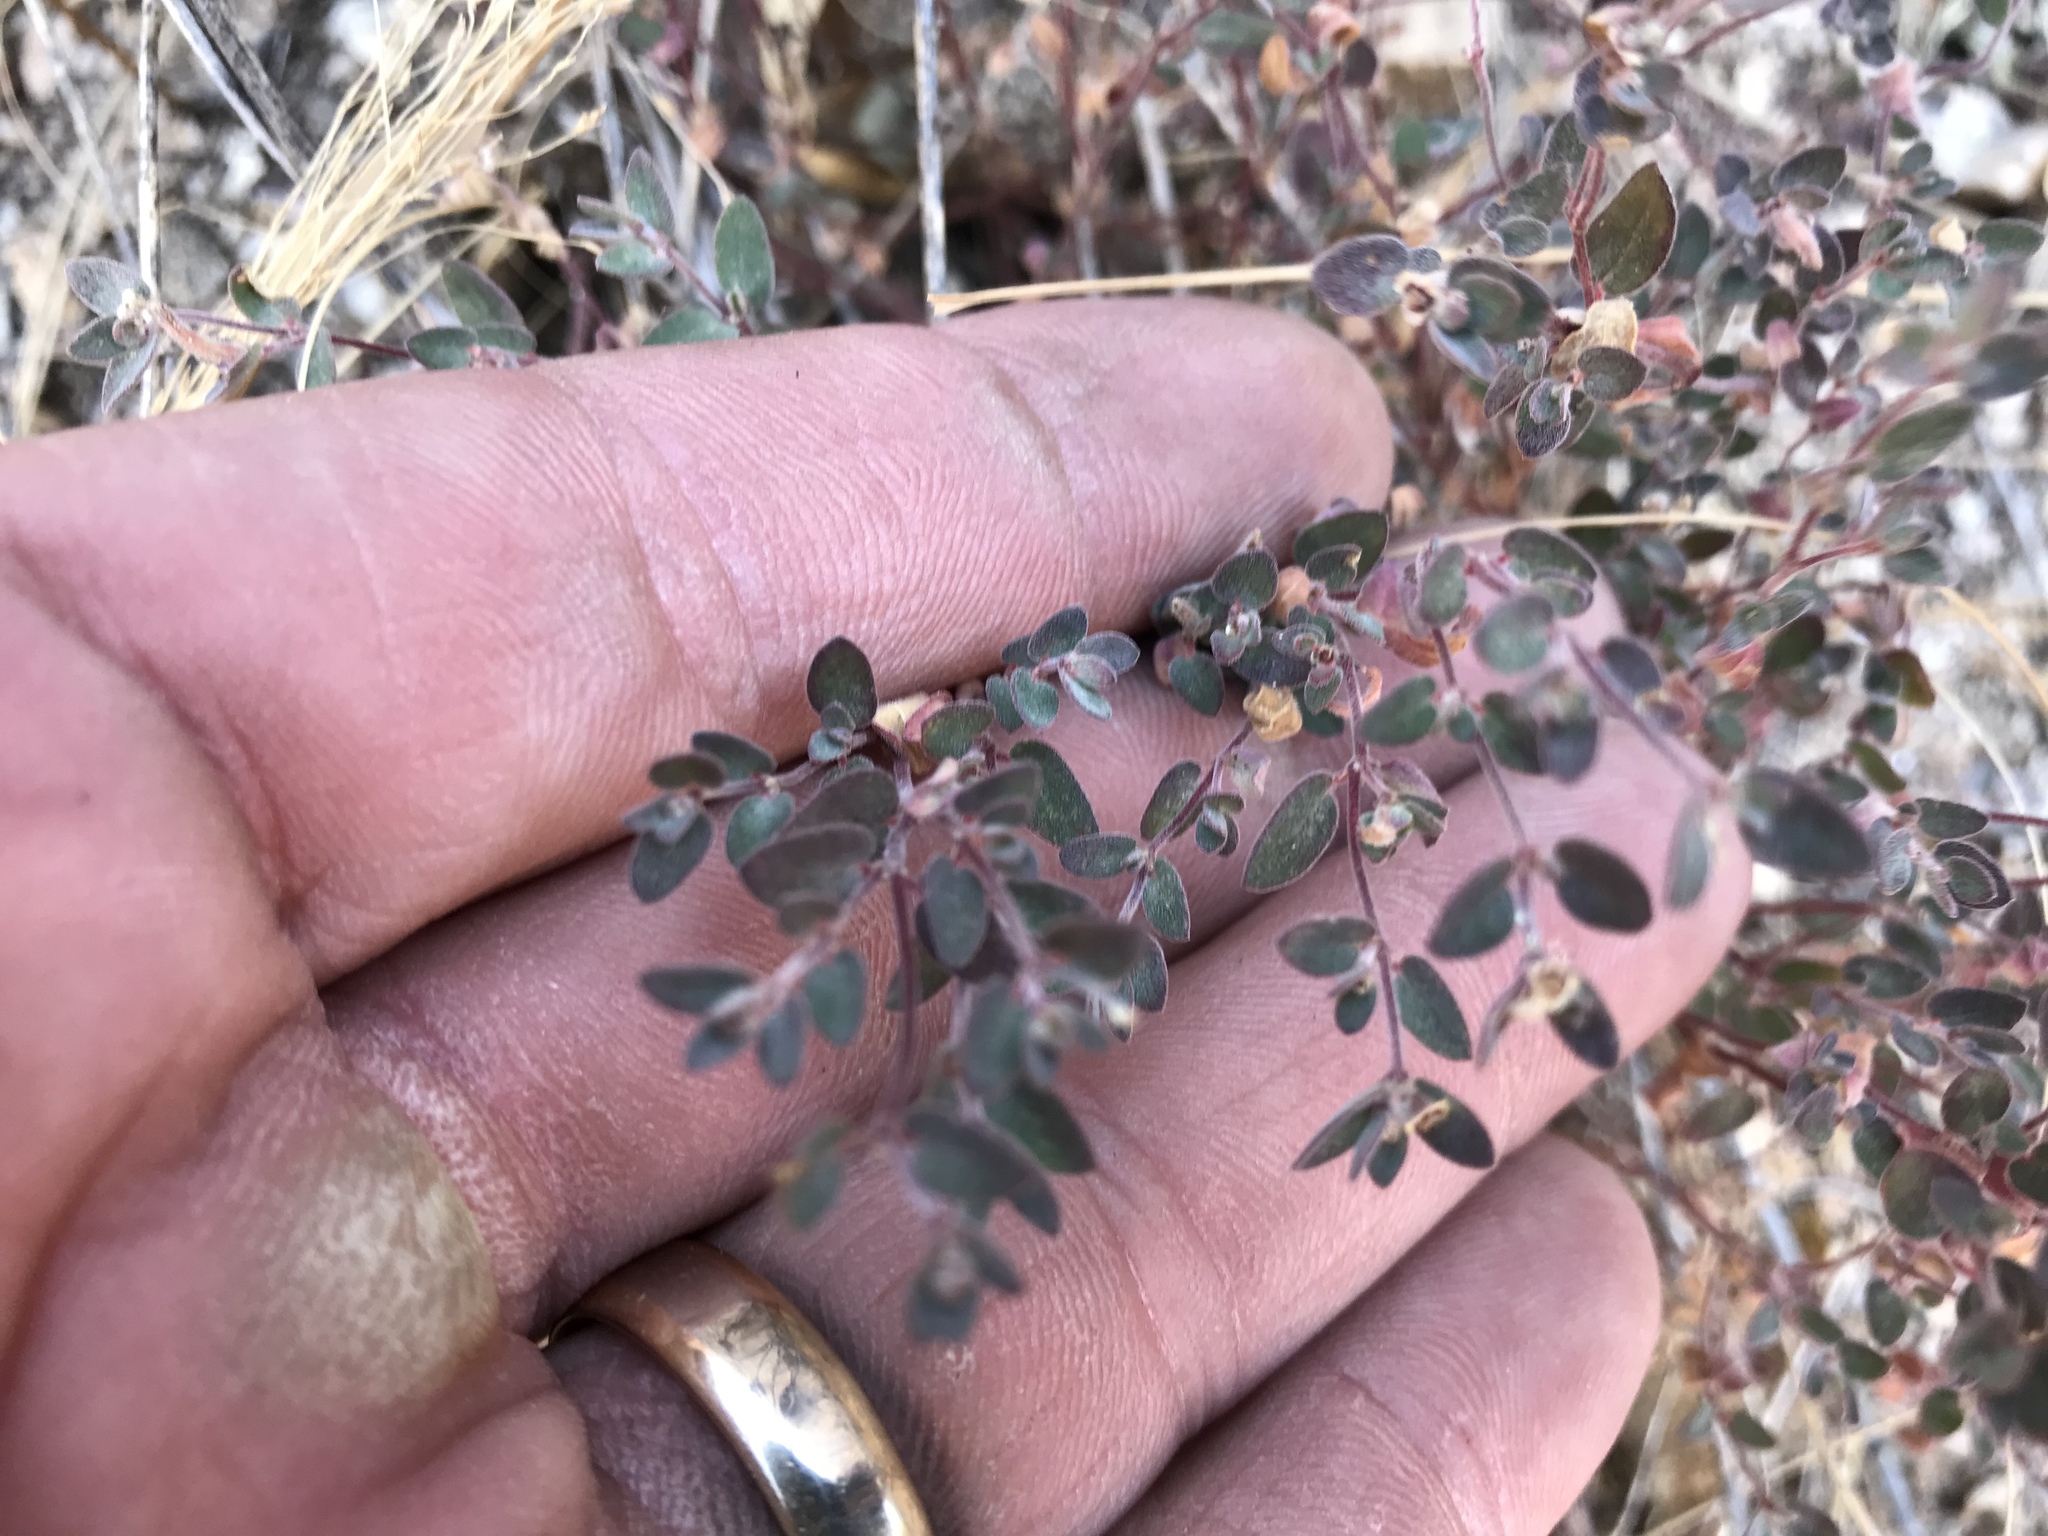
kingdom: Plantae
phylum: Tracheophyta
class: Magnoliopsida
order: Malpighiales
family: Euphorbiaceae
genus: Euphorbia
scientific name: Euphorbia melanadenia
